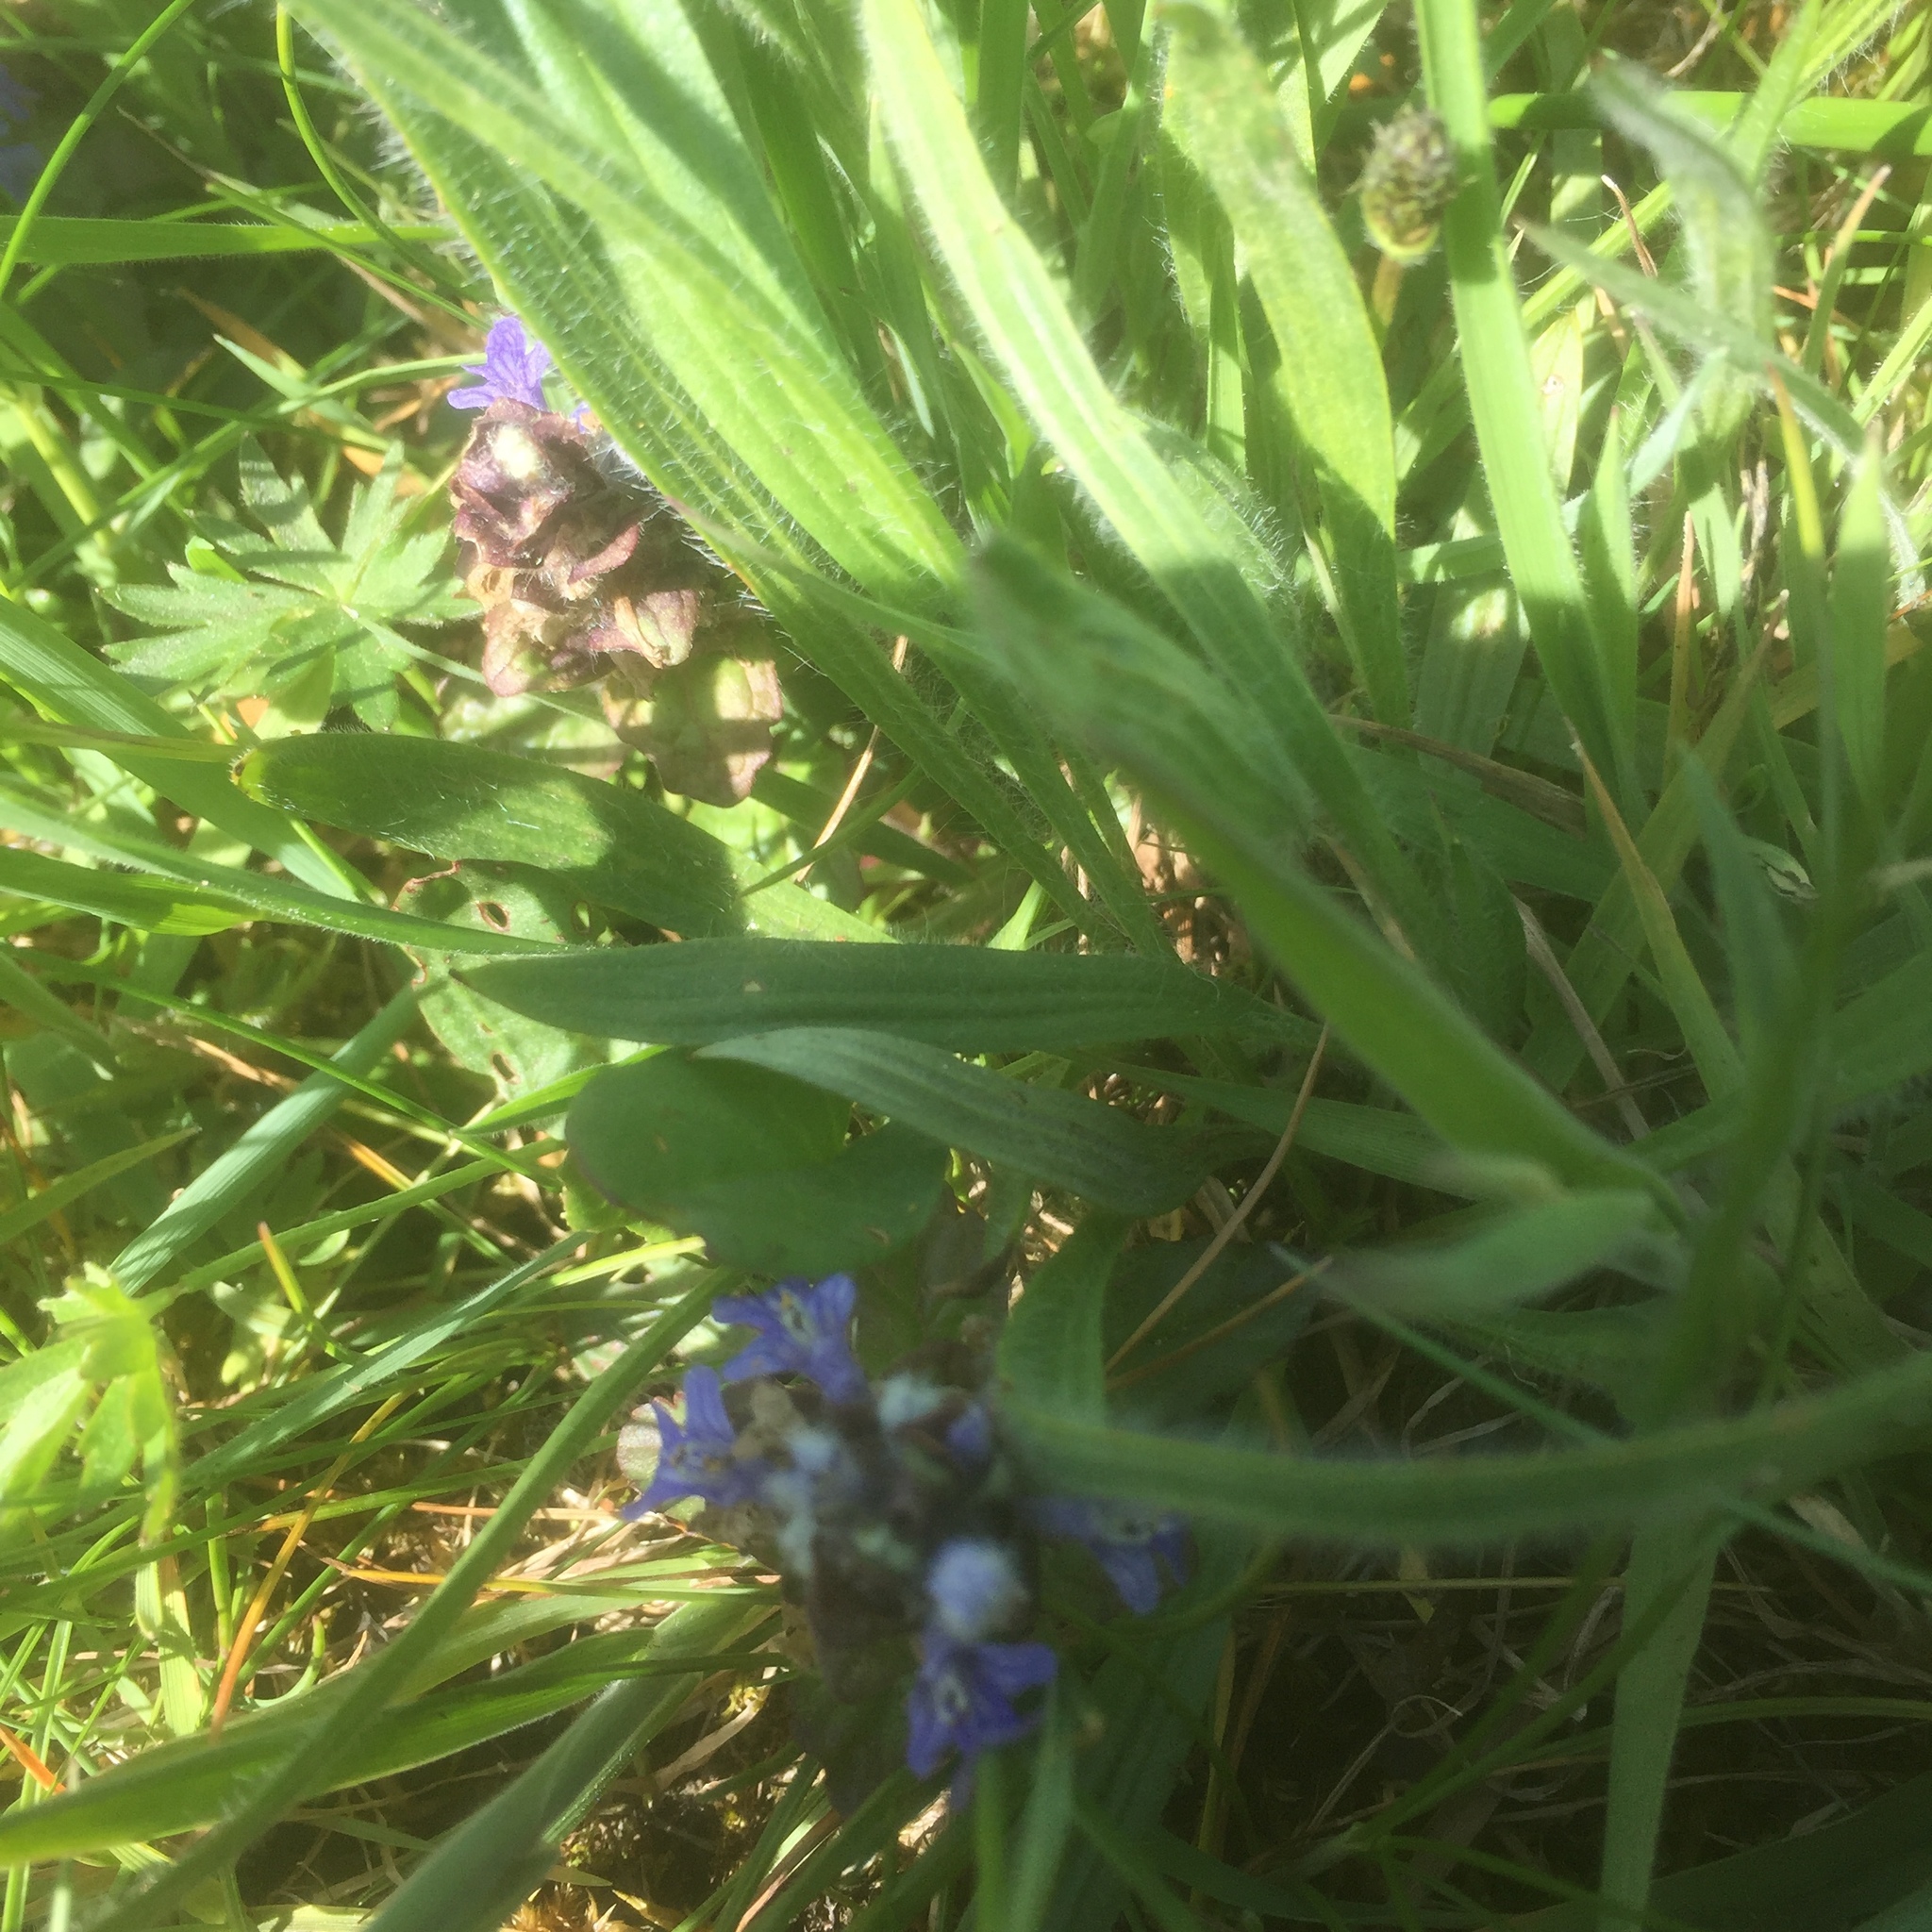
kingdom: Plantae
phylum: Tracheophyta
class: Magnoliopsida
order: Lamiales
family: Lamiaceae
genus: Ajuga
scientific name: Ajuga reptans
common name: Bugle
